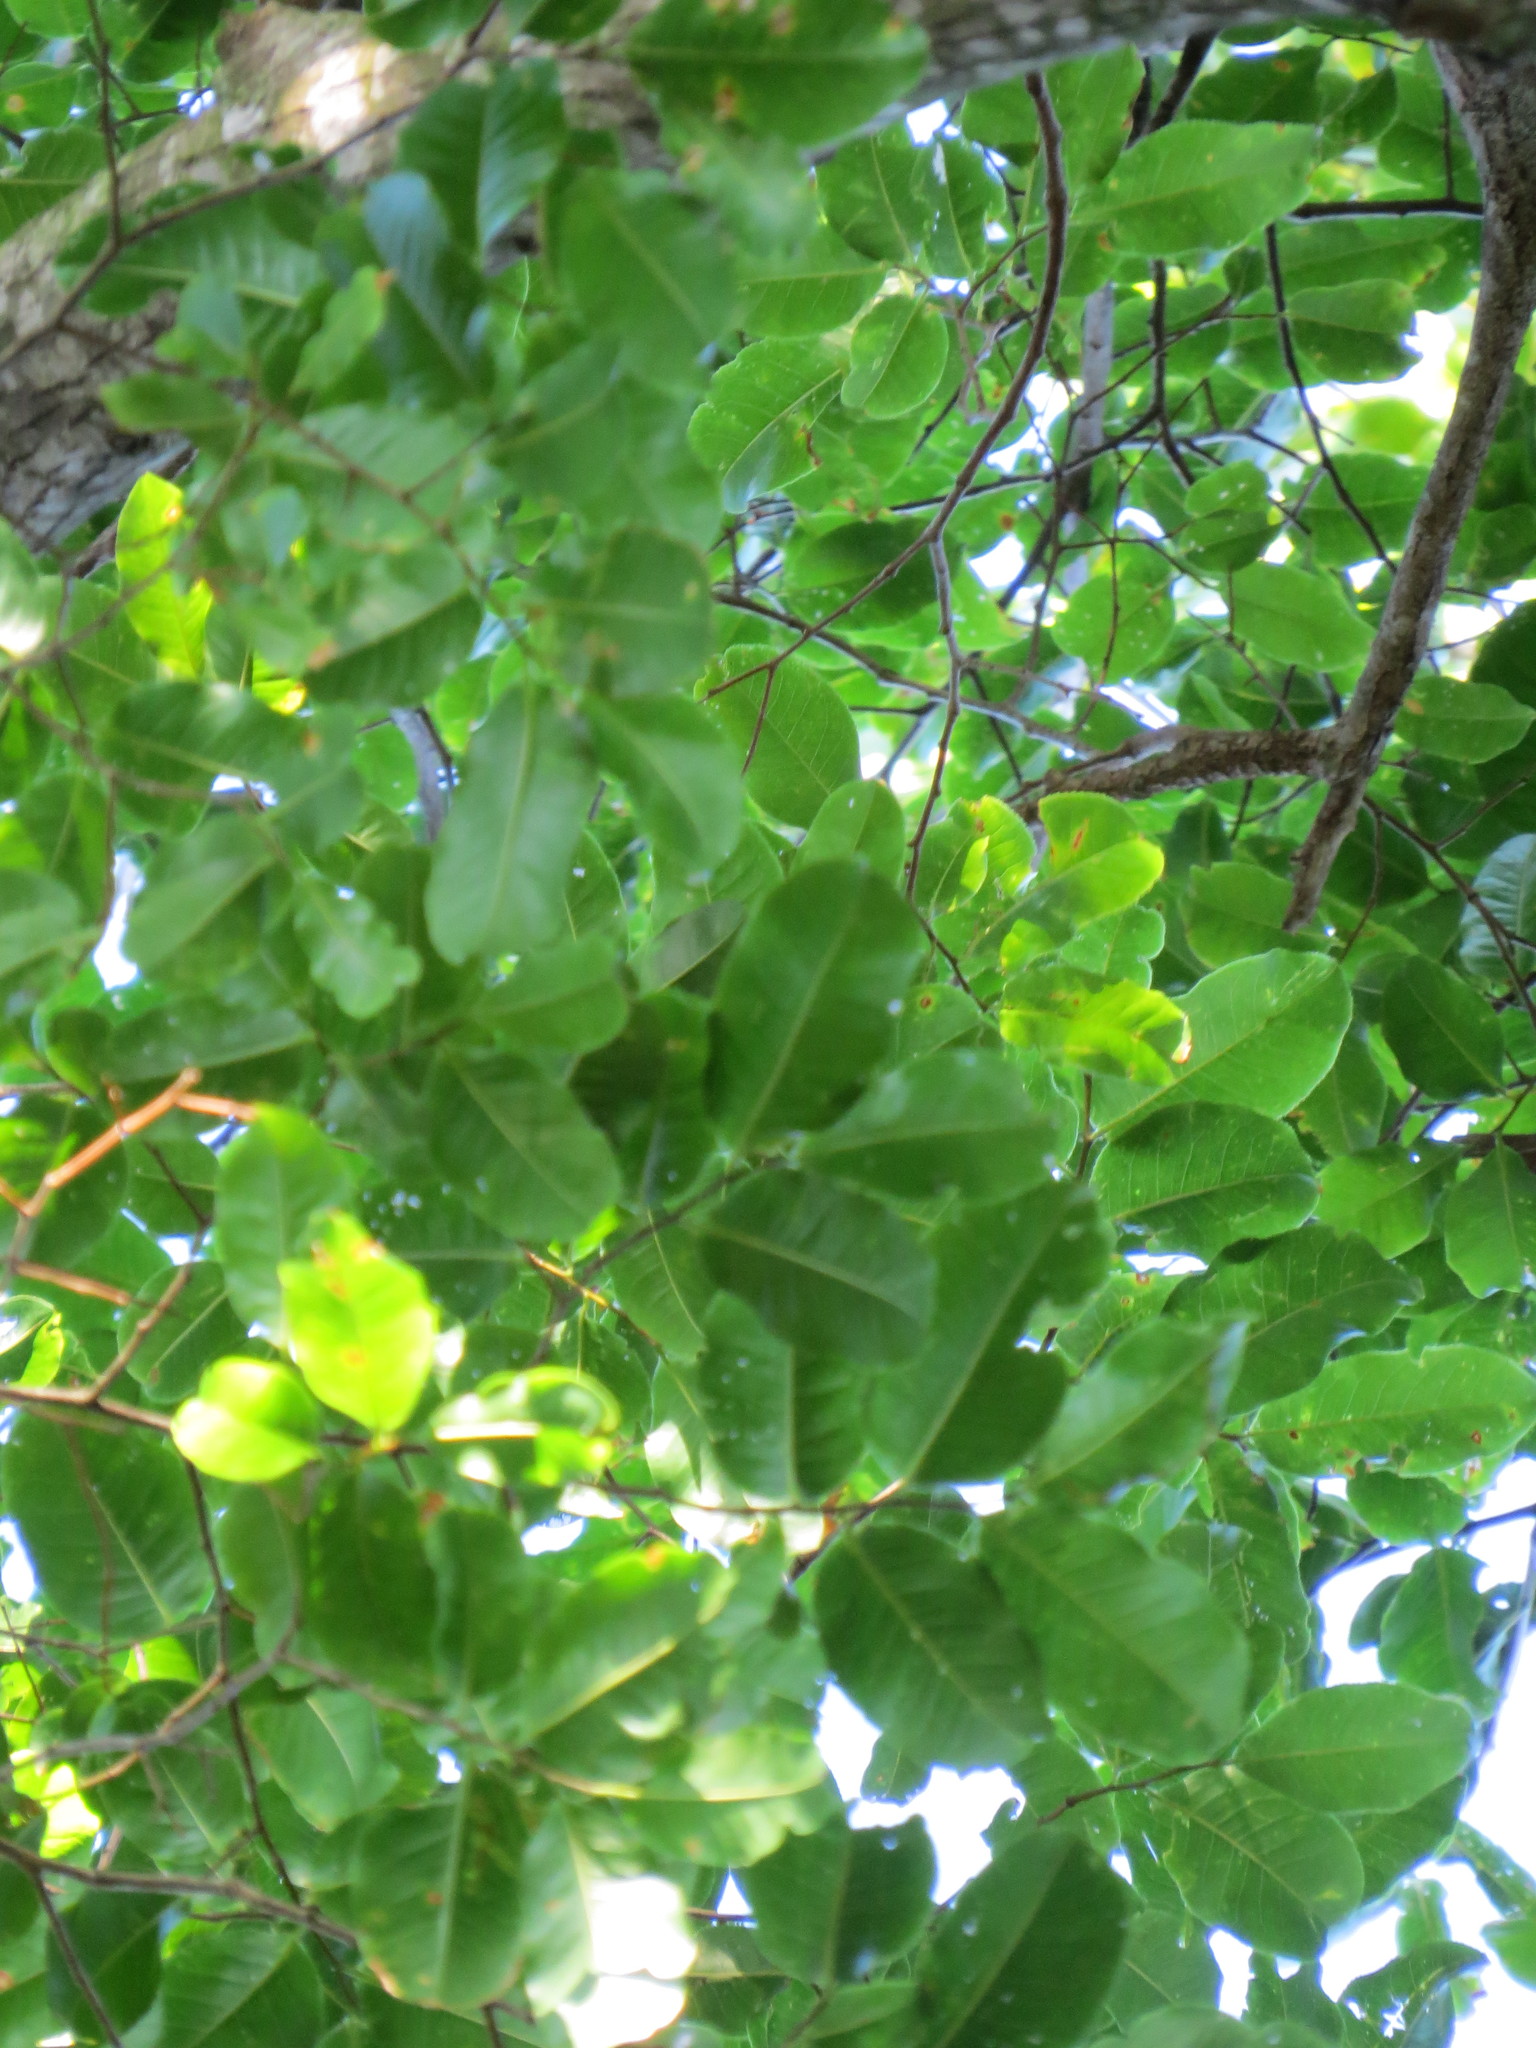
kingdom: Plantae
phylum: Tracheophyta
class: Magnoliopsida
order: Ericales
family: Lecythidaceae
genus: Lecythis
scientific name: Lecythis pisonis
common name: Paradise-nut
